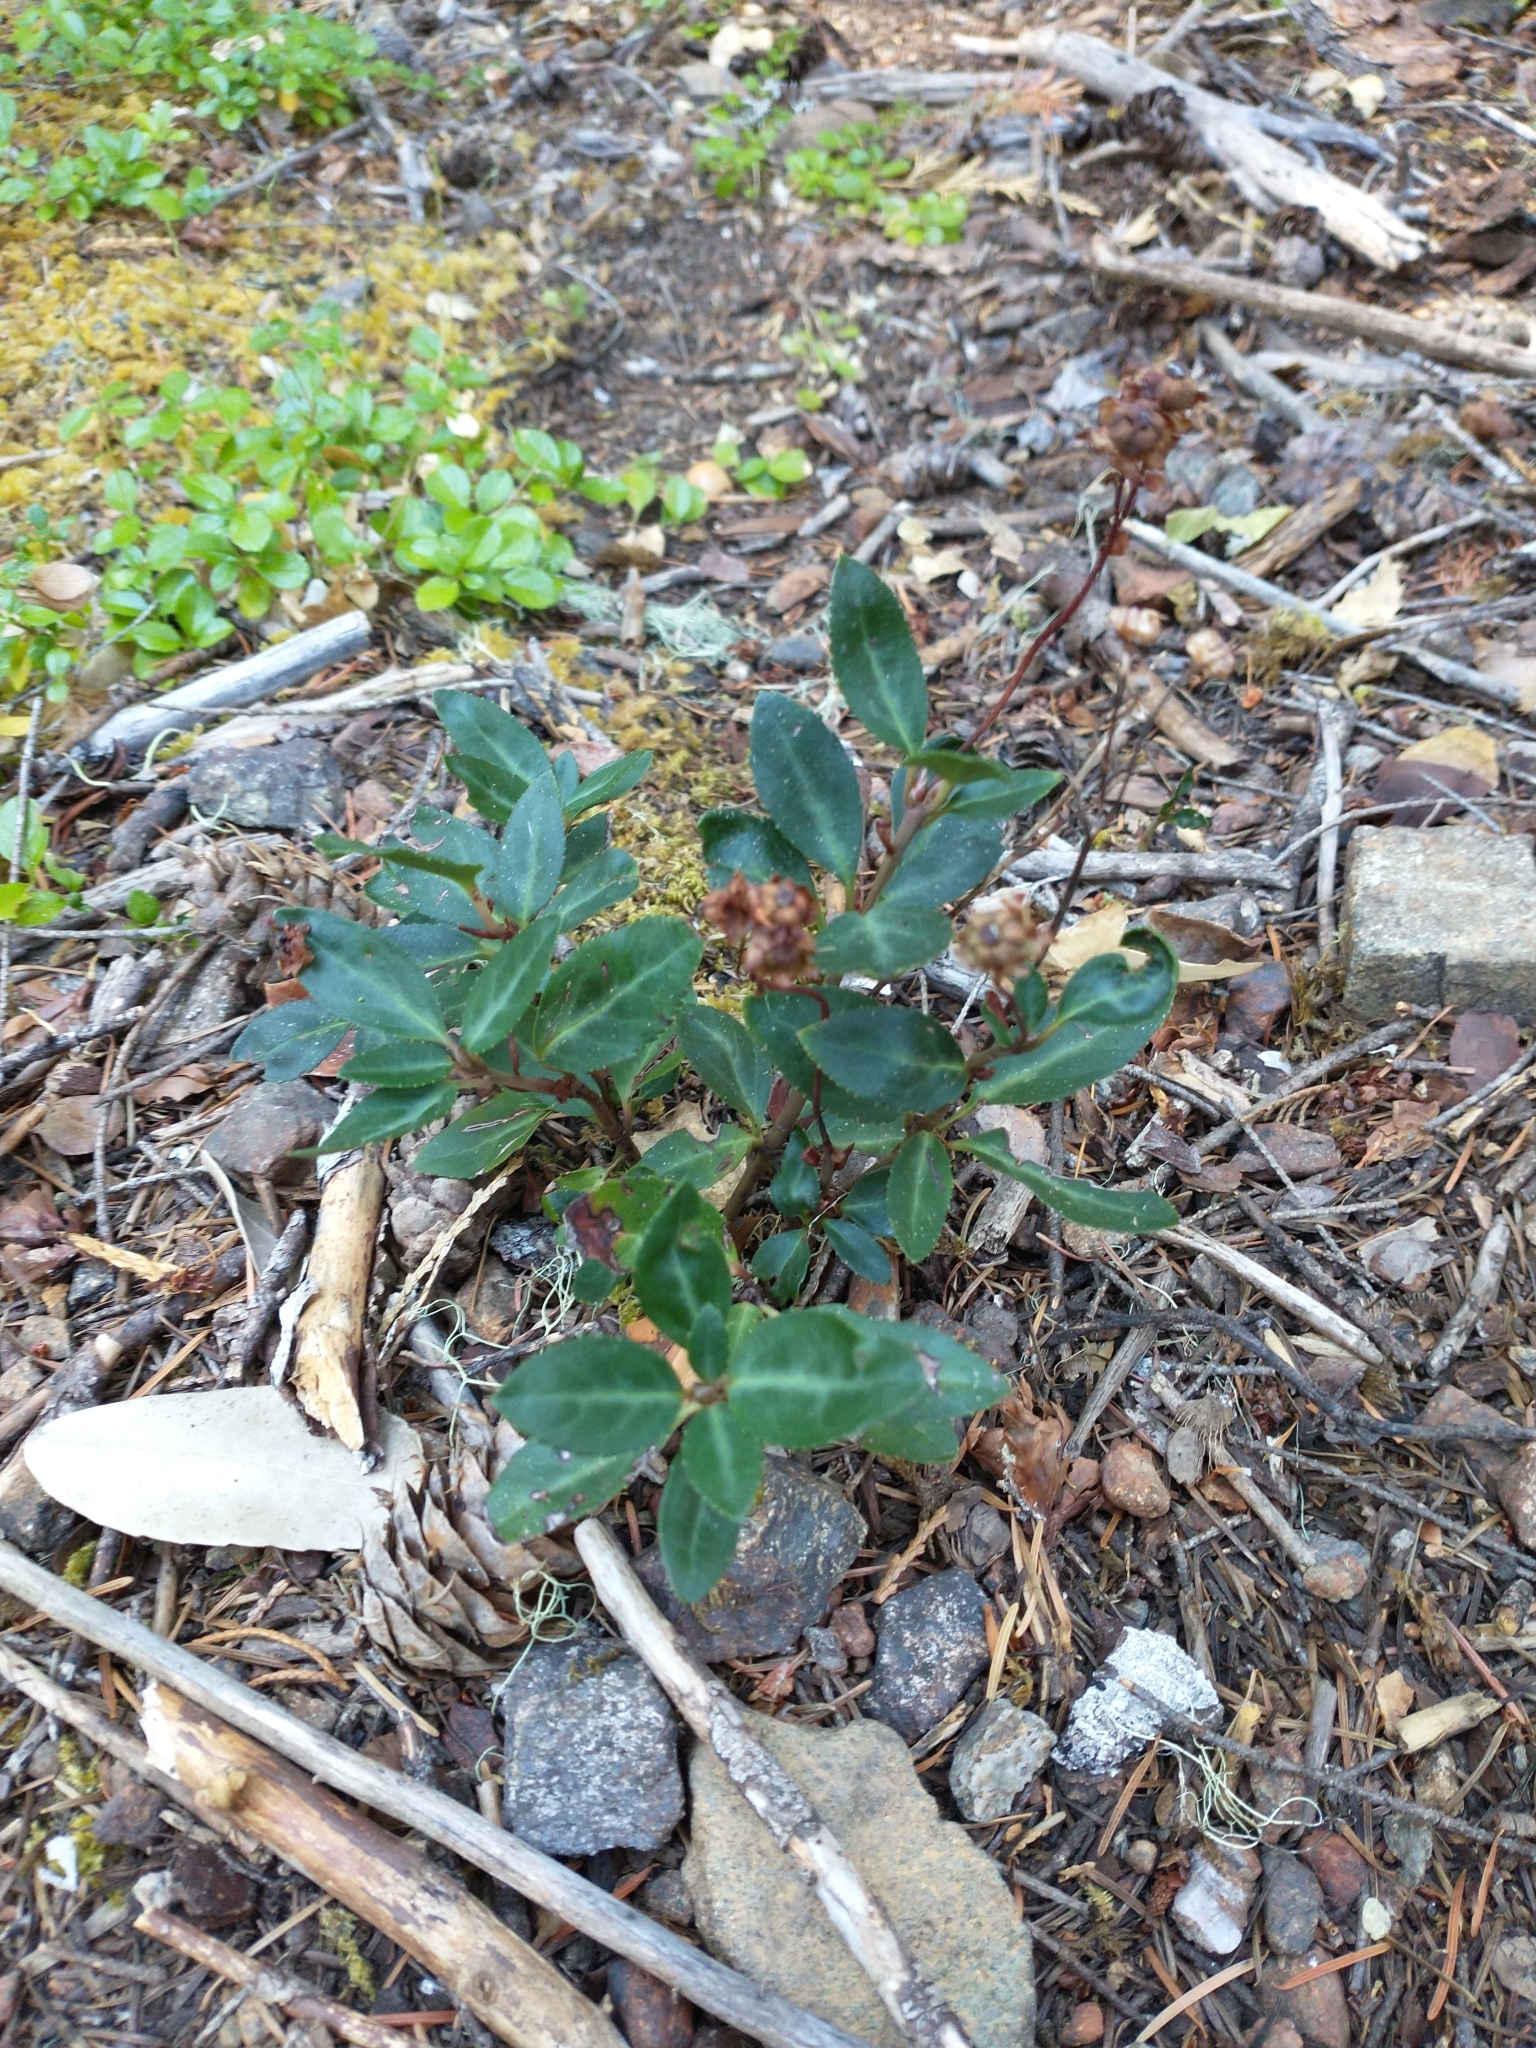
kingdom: Plantae
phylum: Tracheophyta
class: Magnoliopsida
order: Ericales
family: Ericaceae
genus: Chimaphila
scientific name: Chimaphila menziesii
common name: Menzies' pipsissewa
